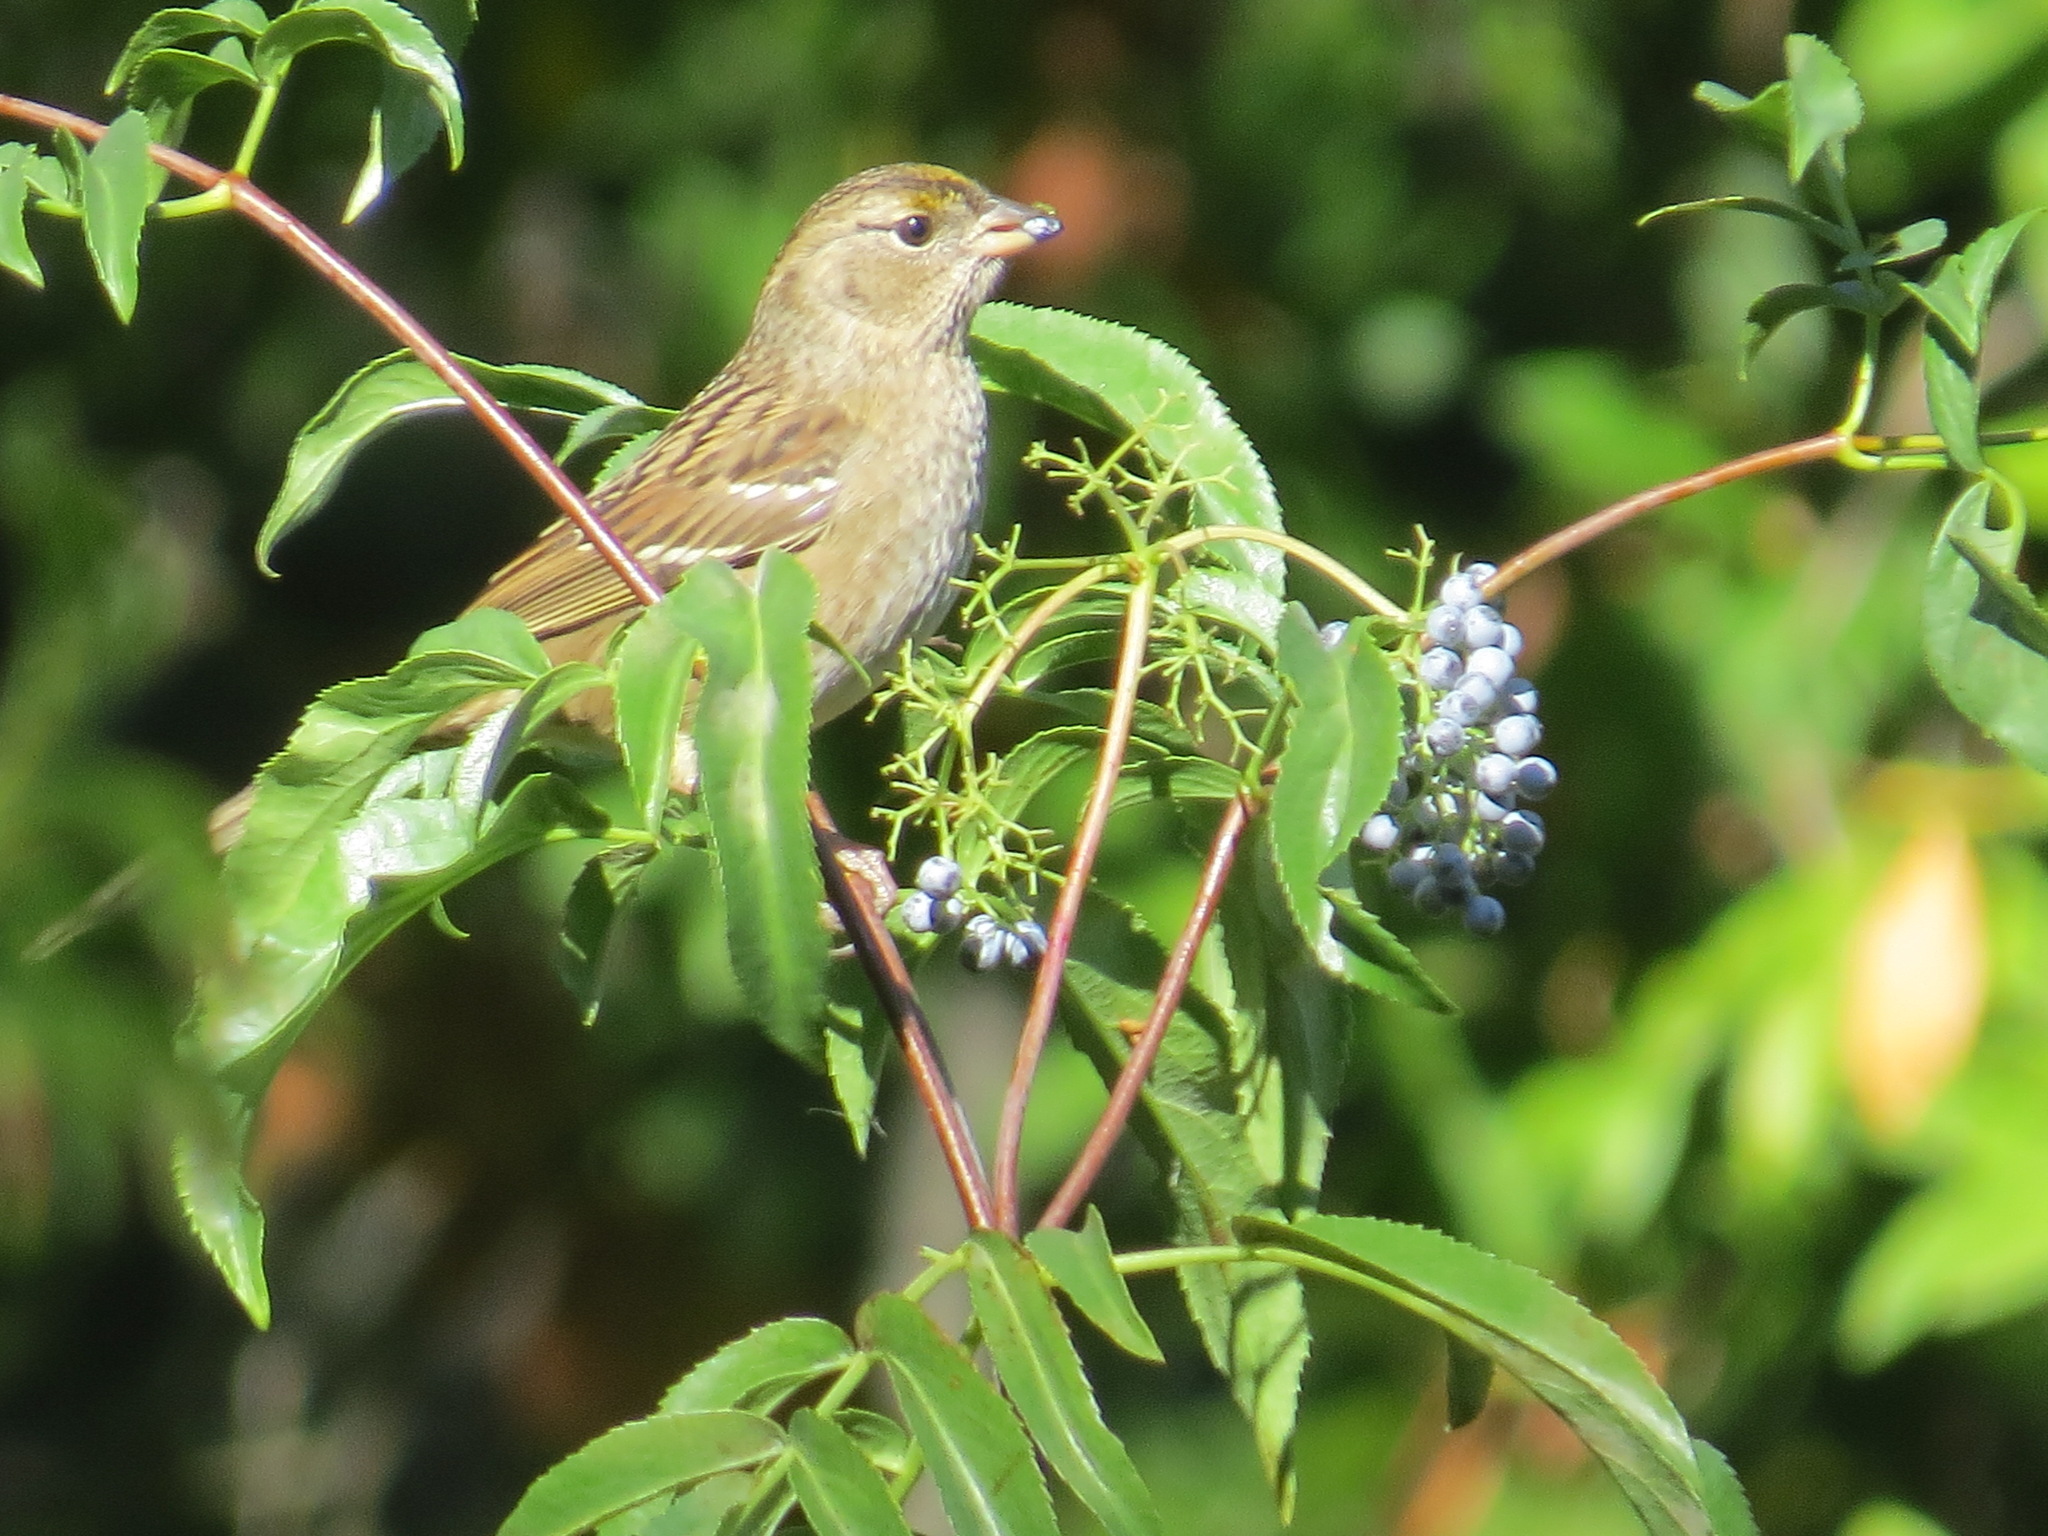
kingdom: Animalia
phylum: Chordata
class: Aves
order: Passeriformes
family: Passerellidae
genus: Zonotrichia
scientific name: Zonotrichia atricapilla
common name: Golden-crowned sparrow
